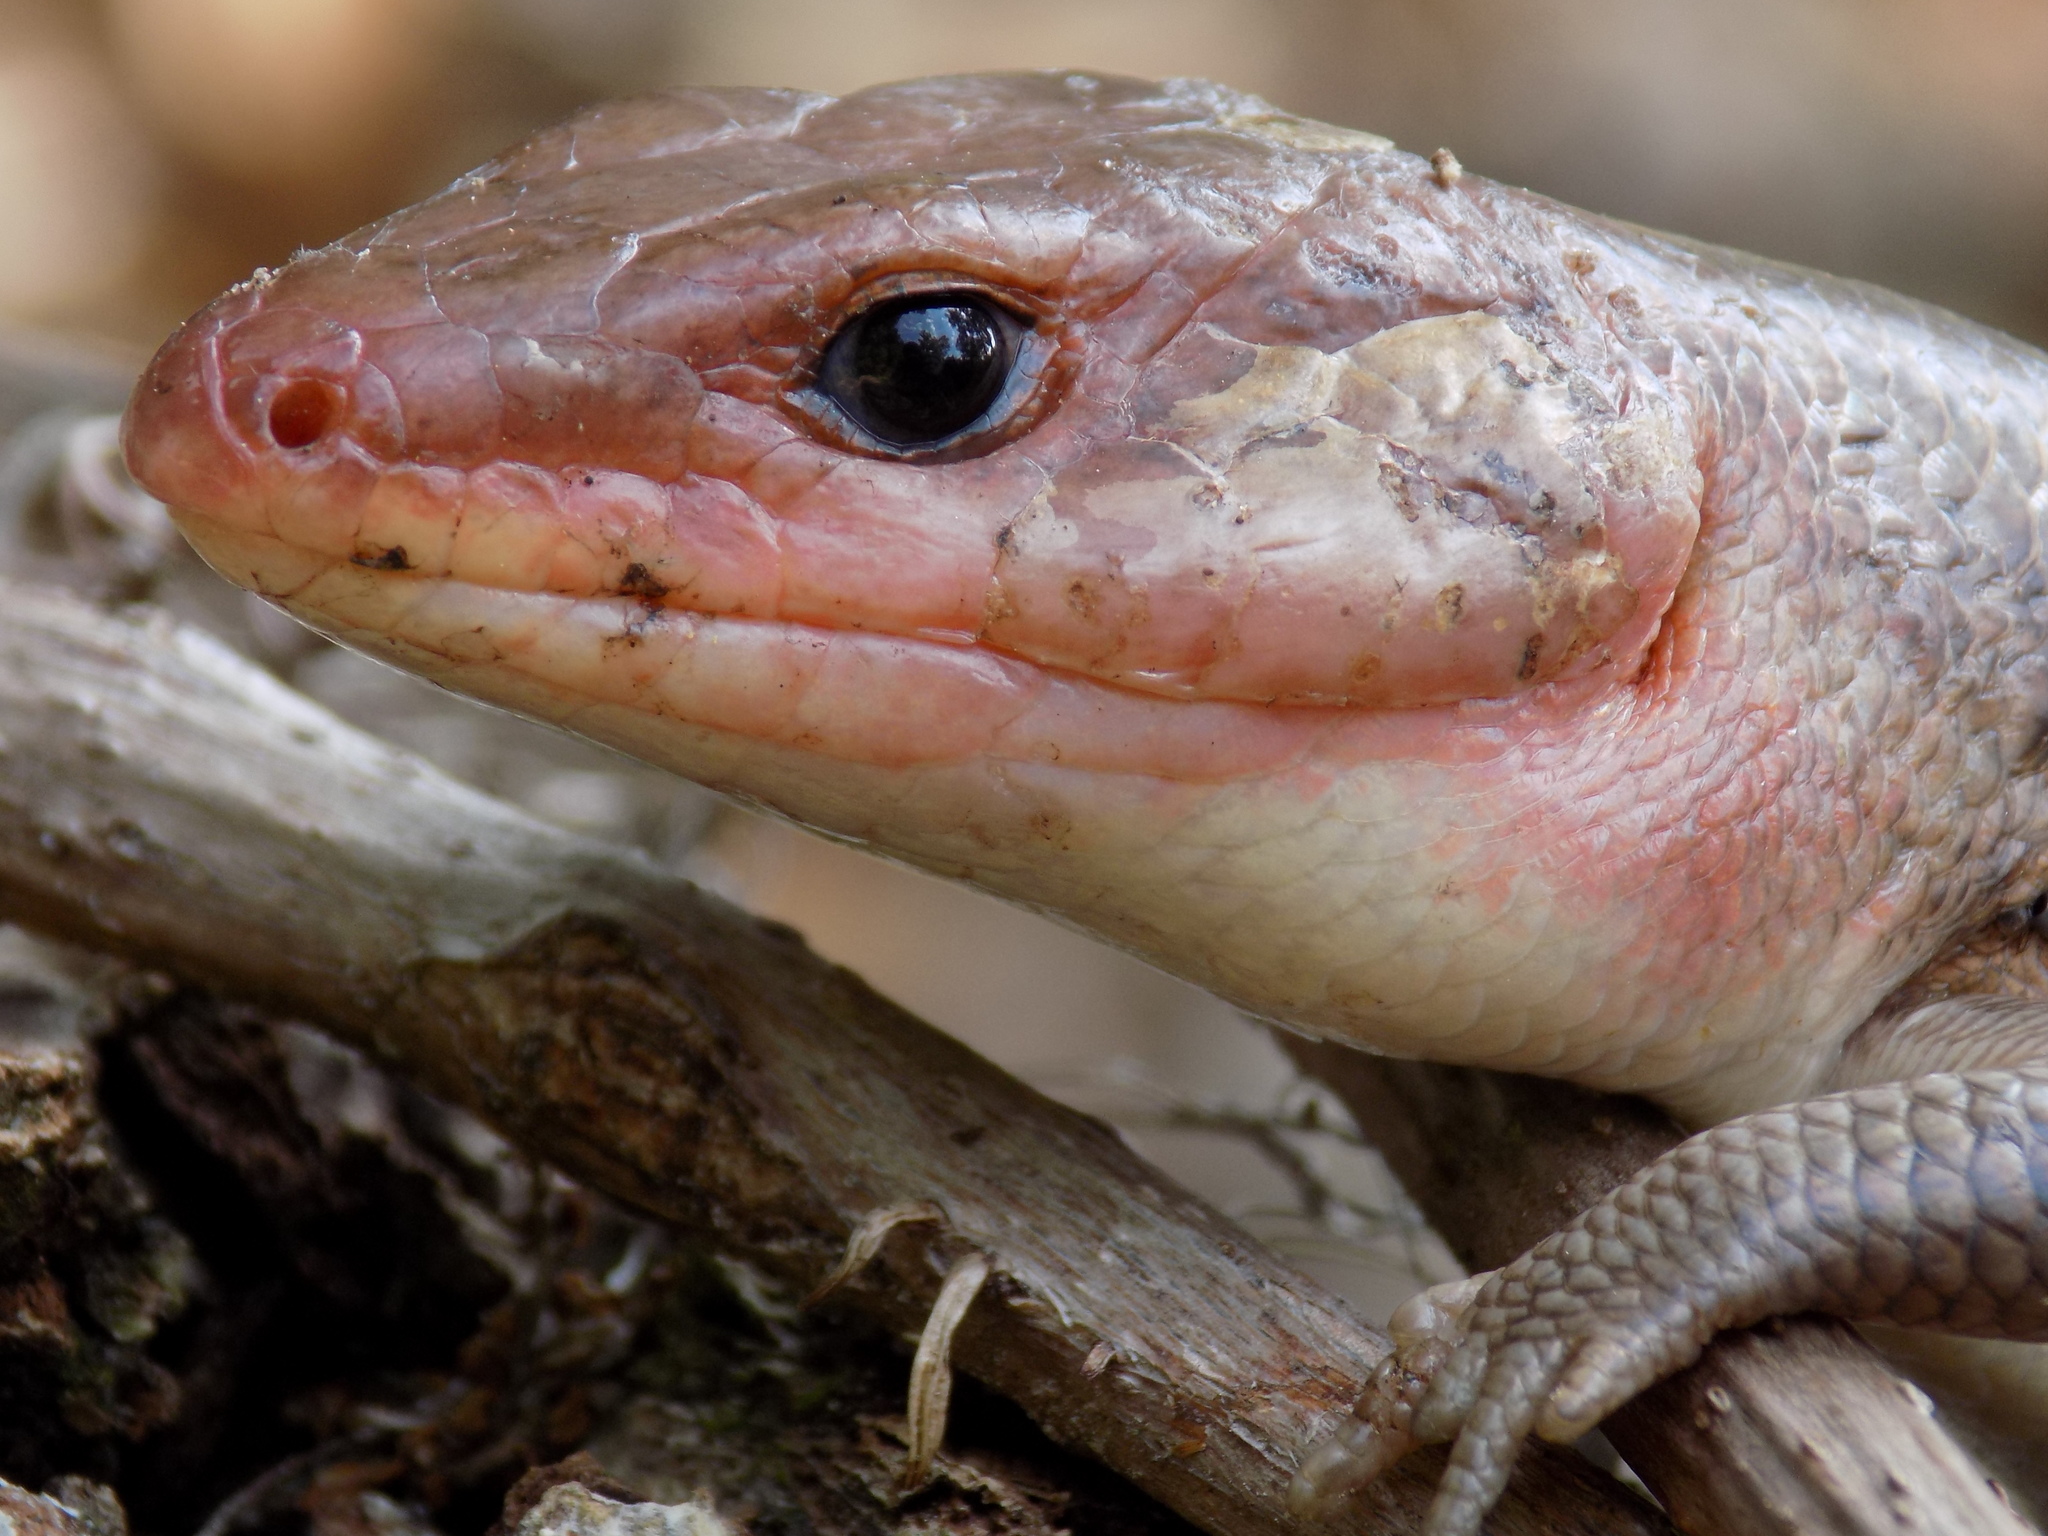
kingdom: Animalia
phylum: Chordata
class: Squamata
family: Scincidae
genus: Plestiodon
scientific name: Plestiodon laticeps
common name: Broadhead skink
